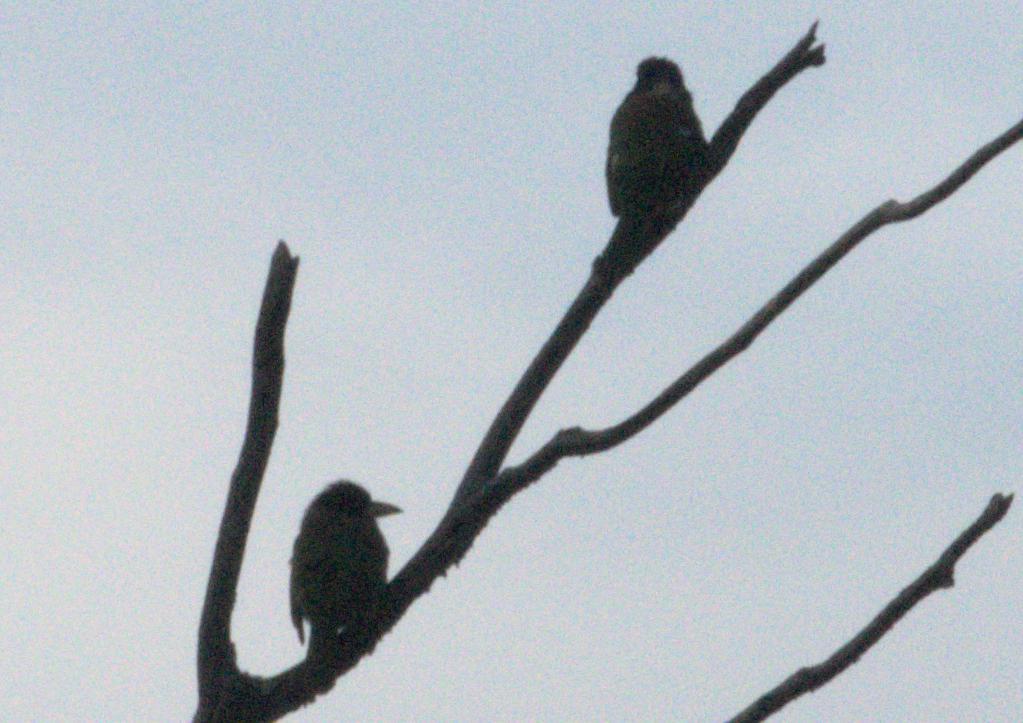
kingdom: Animalia
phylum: Chordata
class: Aves
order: Piciformes
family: Megalaimidae
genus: Psilopogon
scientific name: Psilopogon virens
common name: Great barbet
